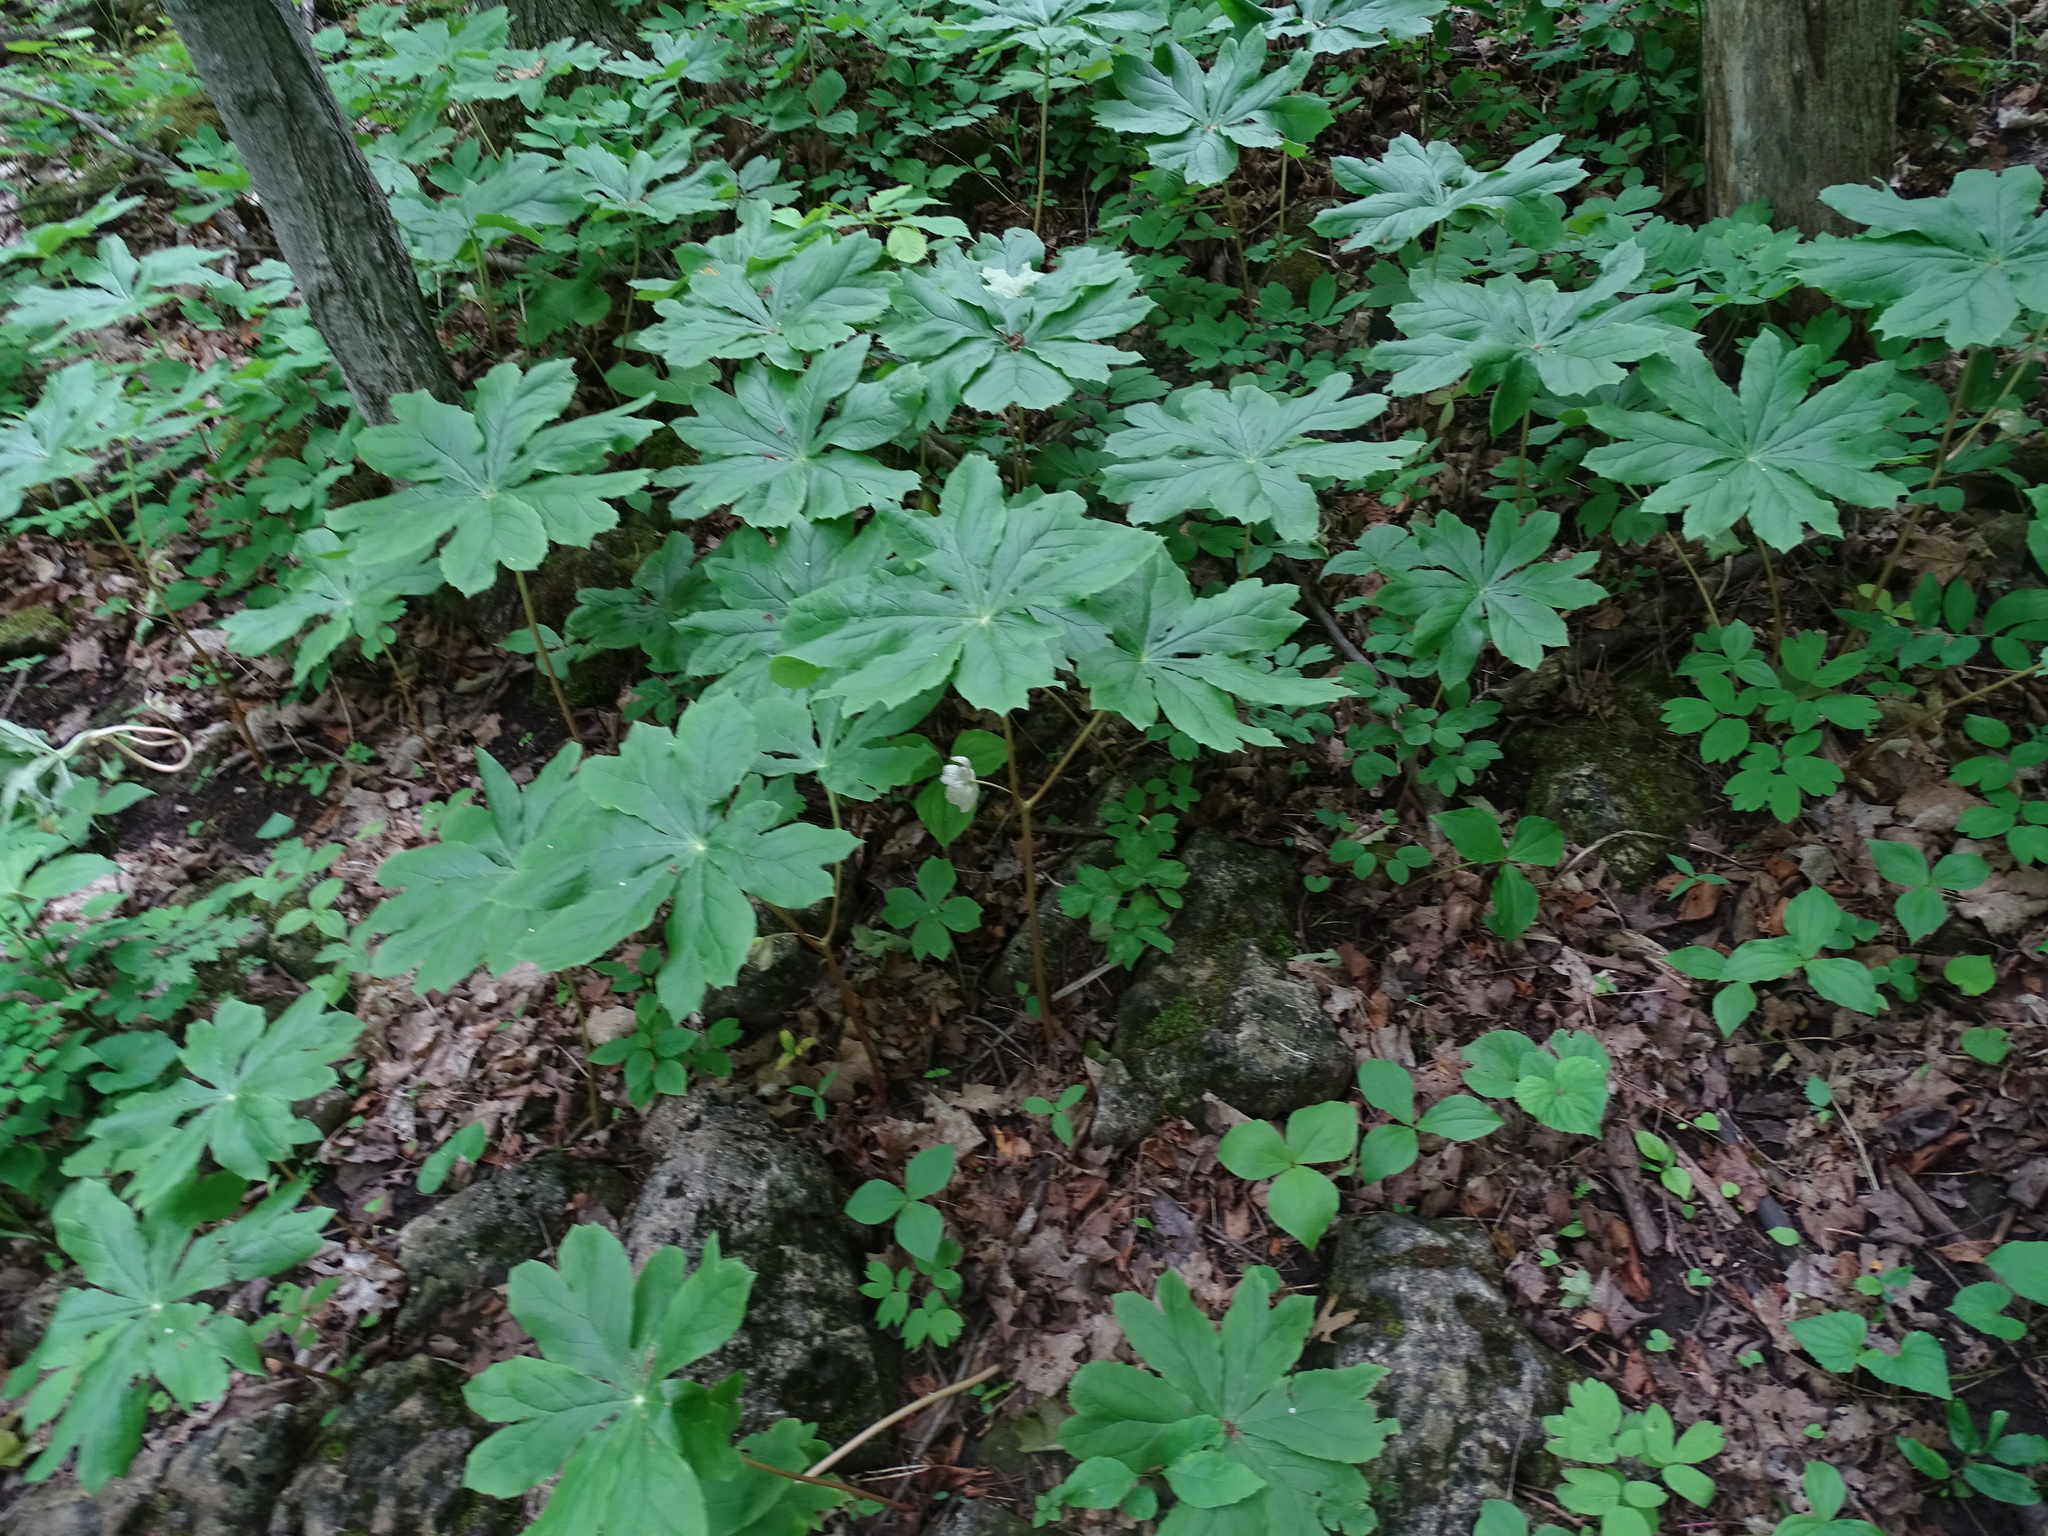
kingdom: Plantae
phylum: Tracheophyta
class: Magnoliopsida
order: Ranunculales
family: Berberidaceae
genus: Podophyllum
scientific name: Podophyllum peltatum
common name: Wild mandrake
